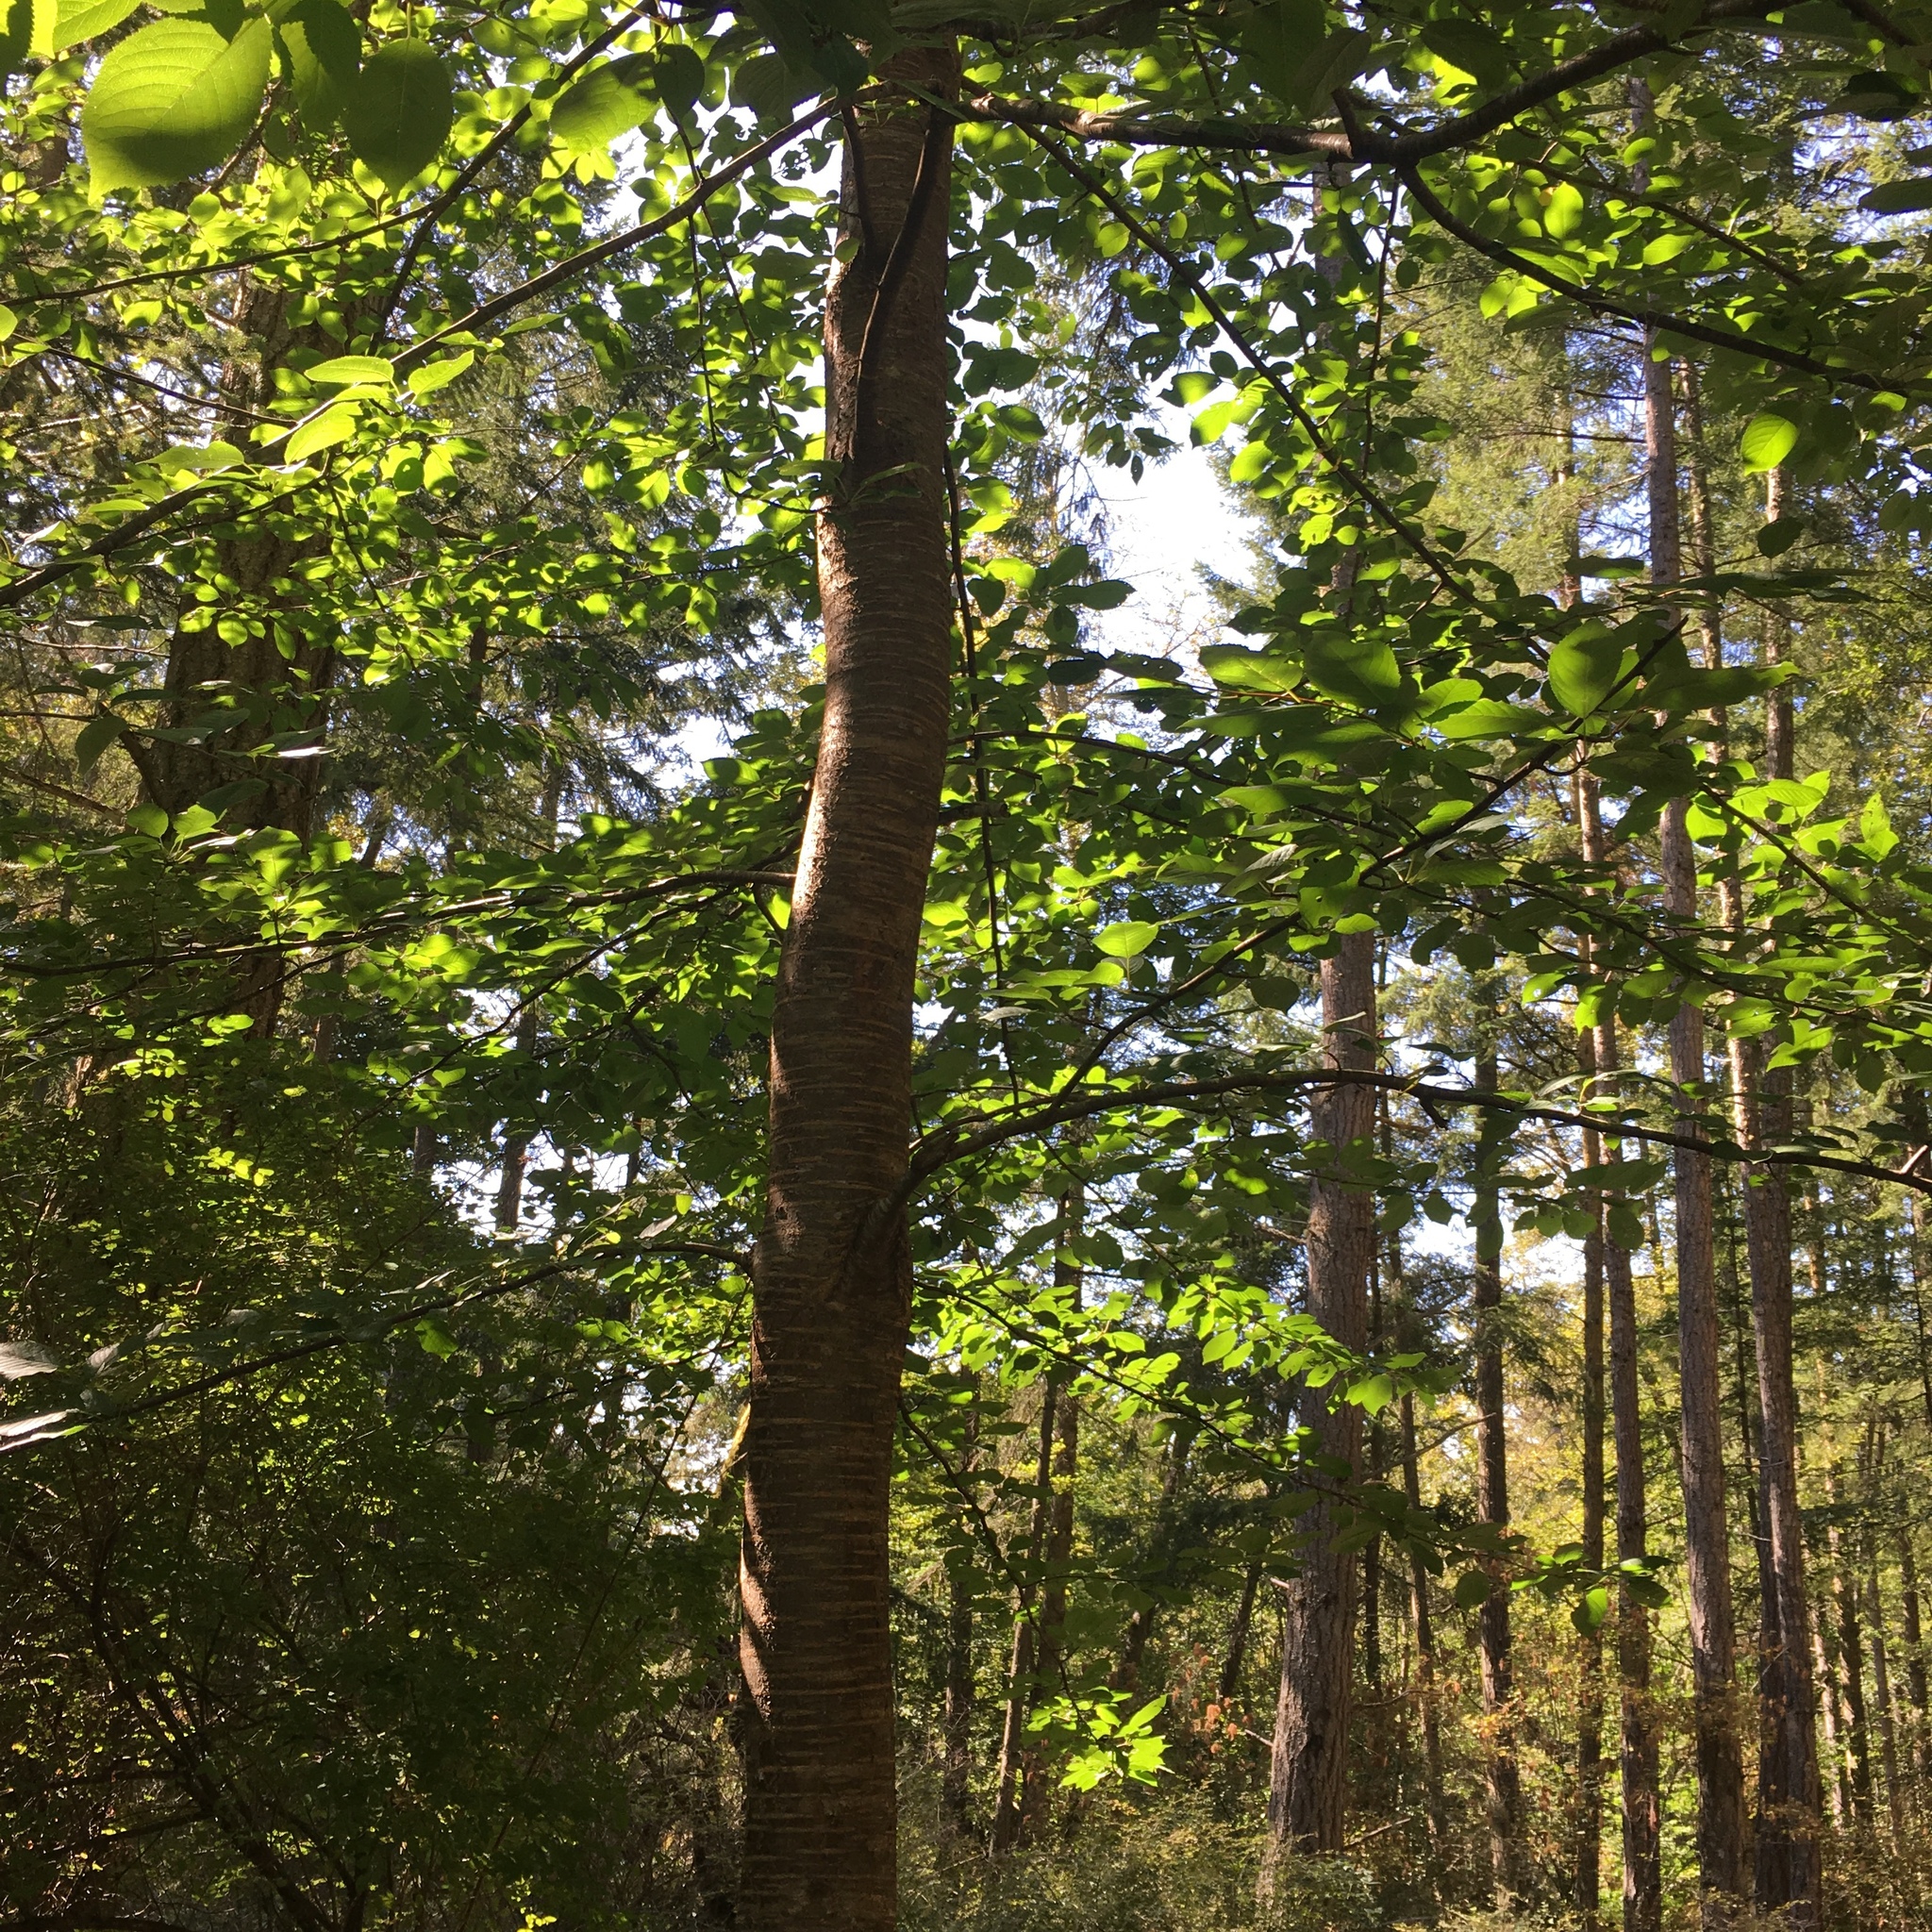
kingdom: Plantae
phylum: Tracheophyta
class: Magnoliopsida
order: Rosales
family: Rosaceae
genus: Prunus
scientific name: Prunus avium
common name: Sweet cherry
